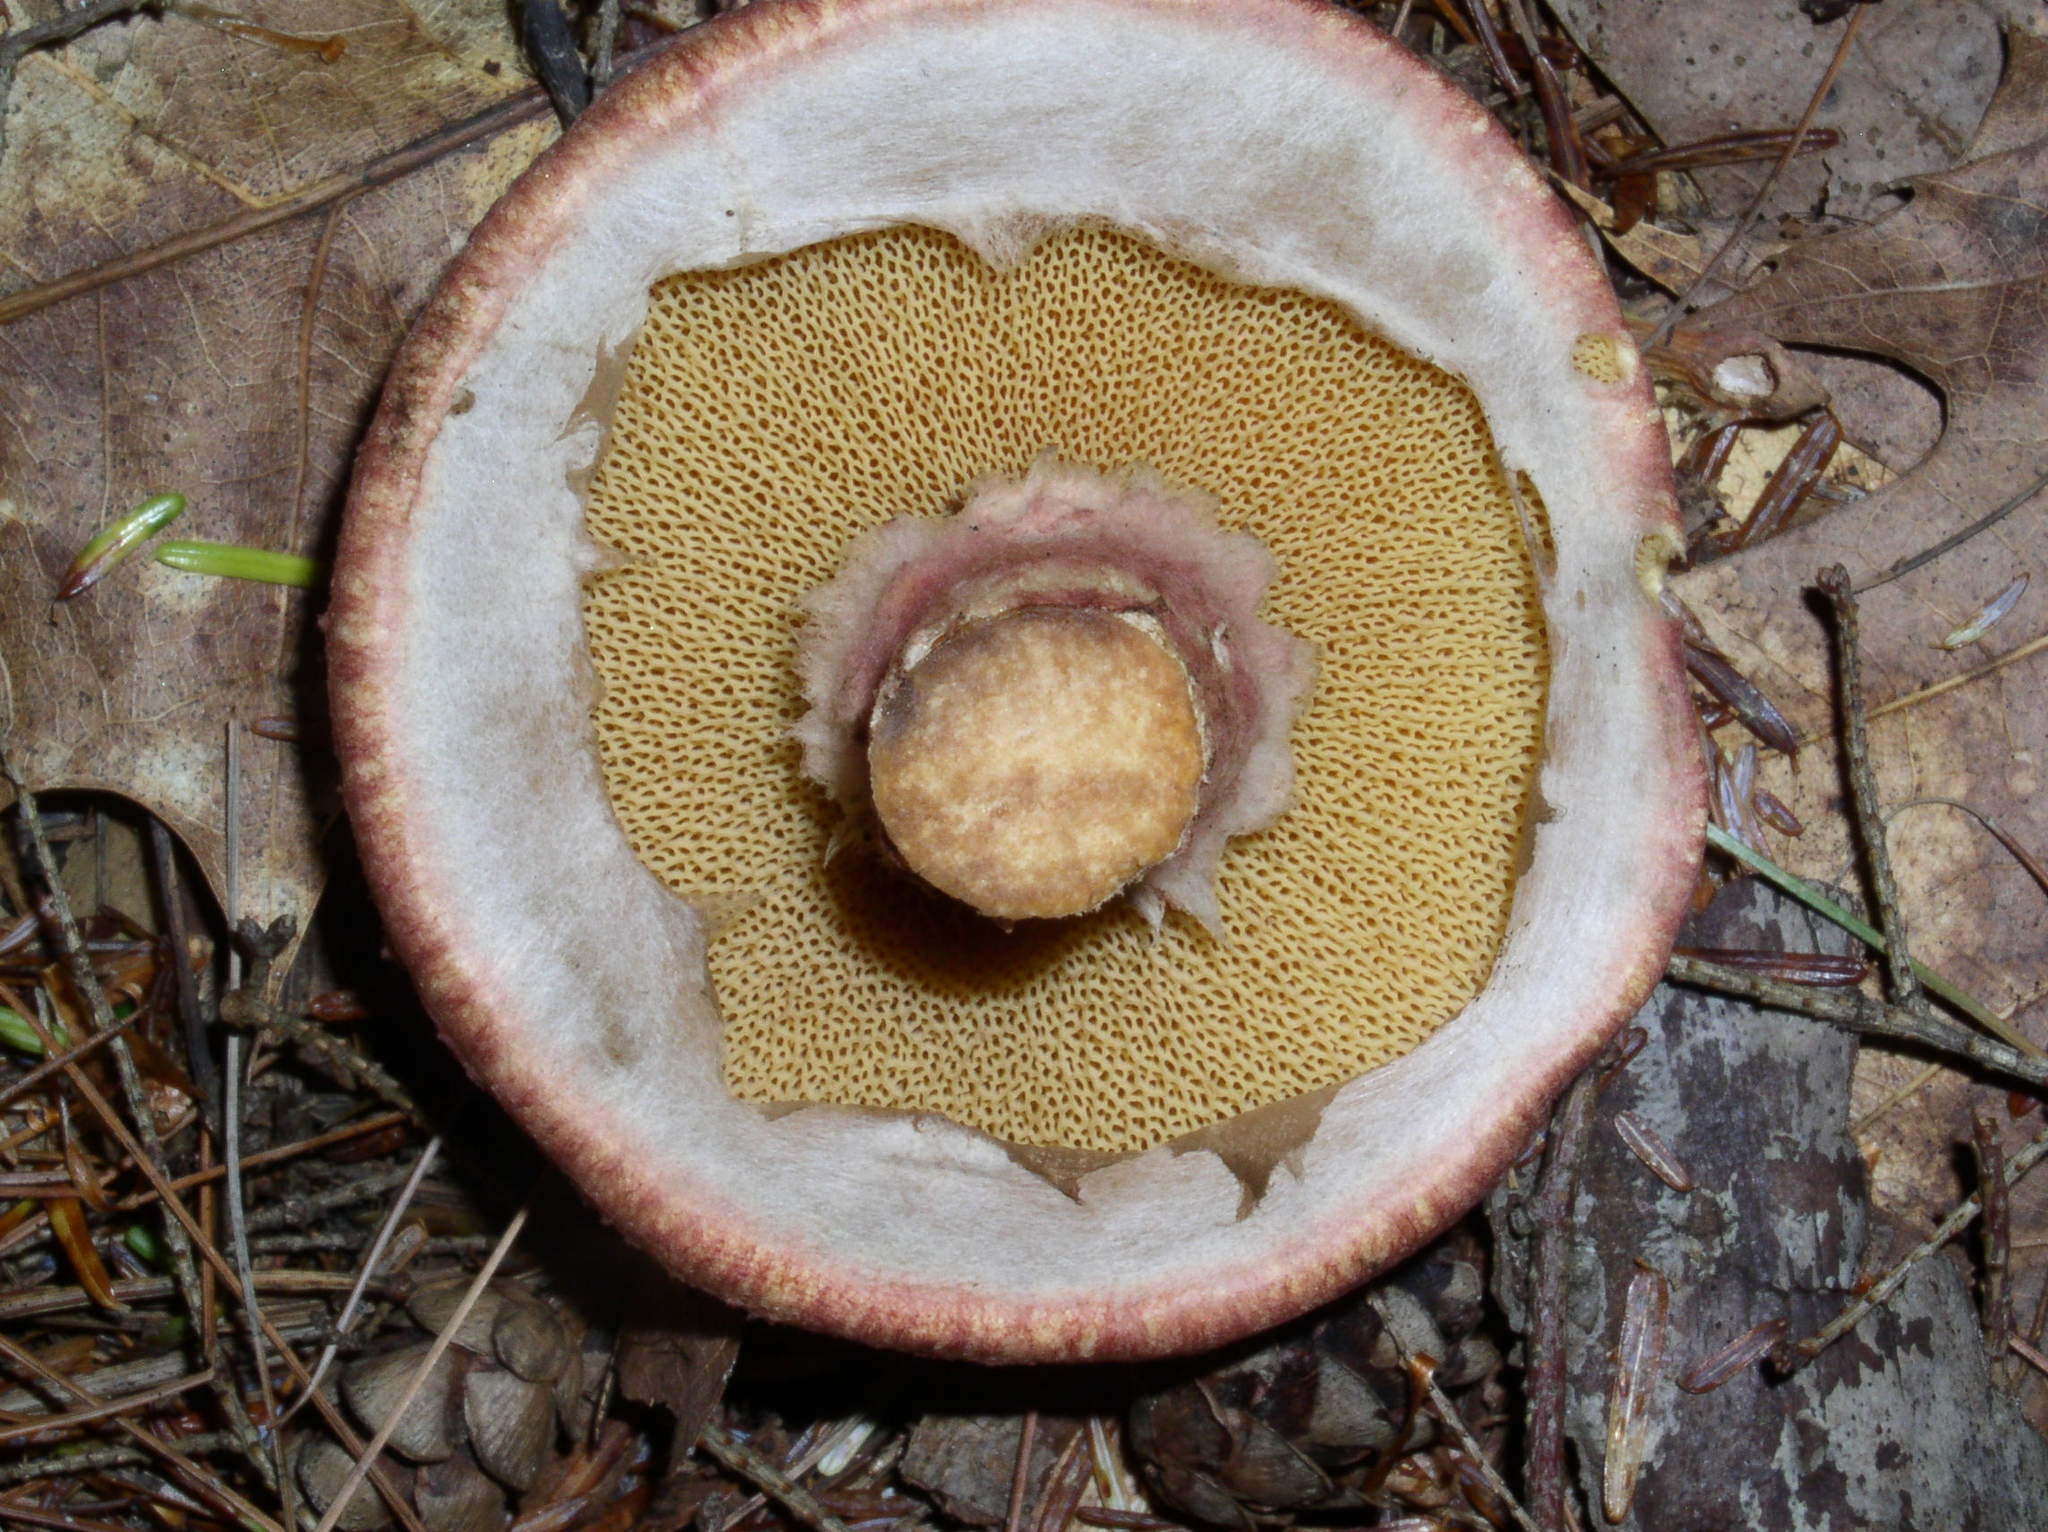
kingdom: Fungi
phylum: Basidiomycota
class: Agaricomycetes
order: Boletales
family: Suillaceae
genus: Suillus
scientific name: Suillus spraguei
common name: Painted suillus
